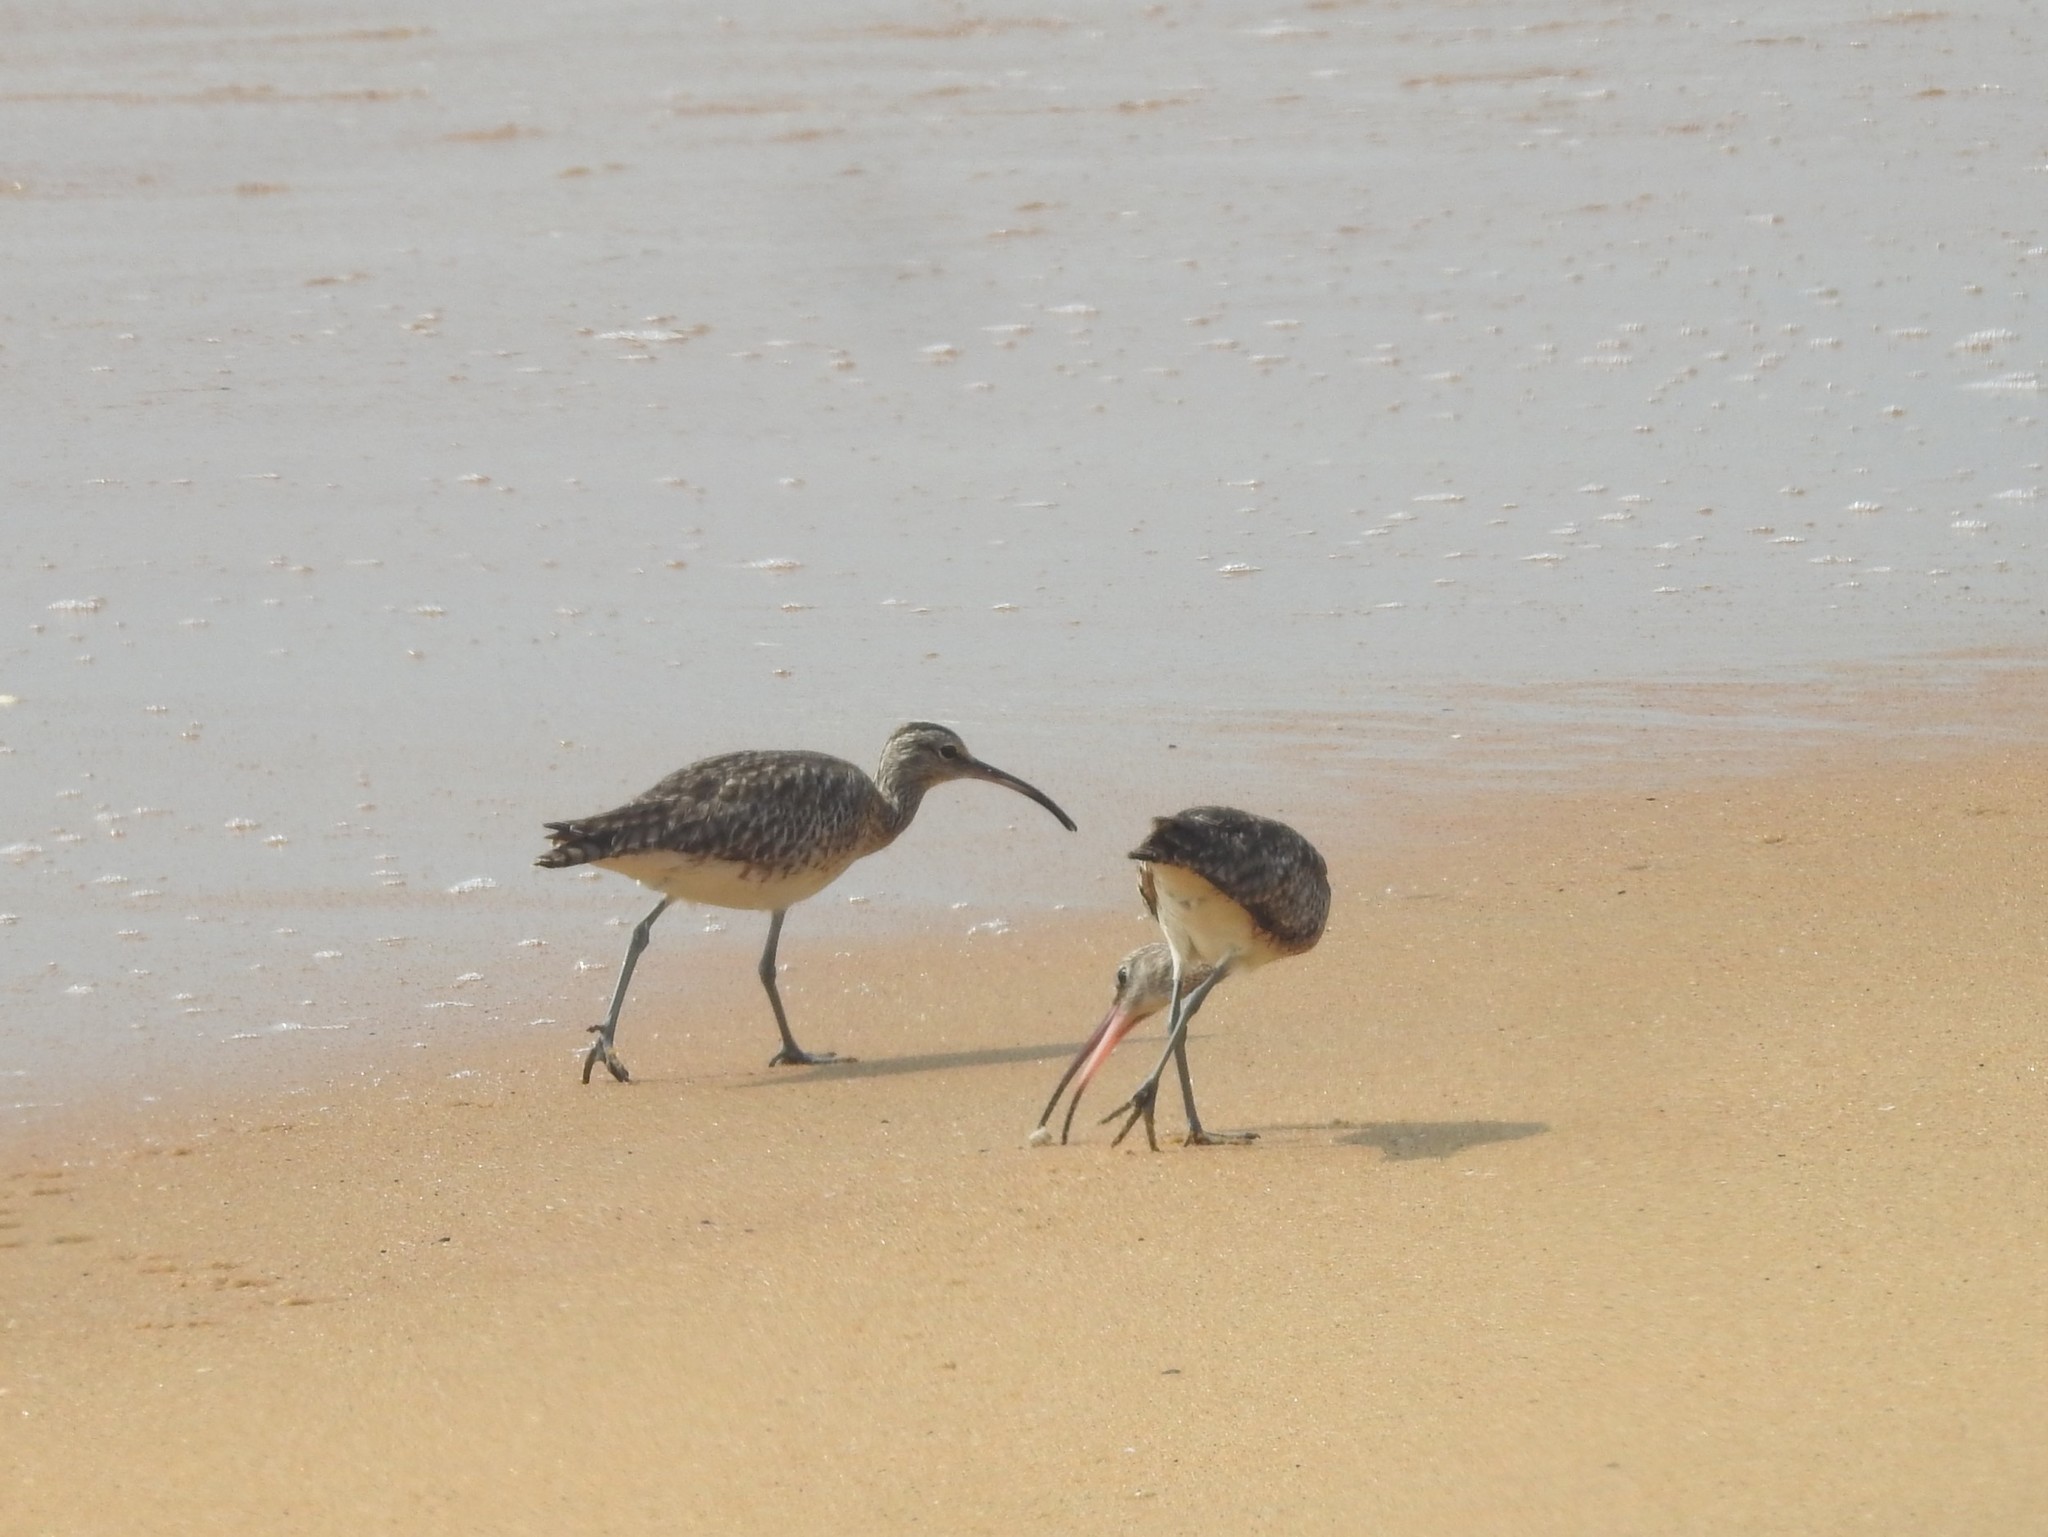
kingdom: Animalia
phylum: Chordata
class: Aves
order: Charadriiformes
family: Scolopacidae
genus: Numenius
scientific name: Numenius phaeopus
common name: Whimbrel
